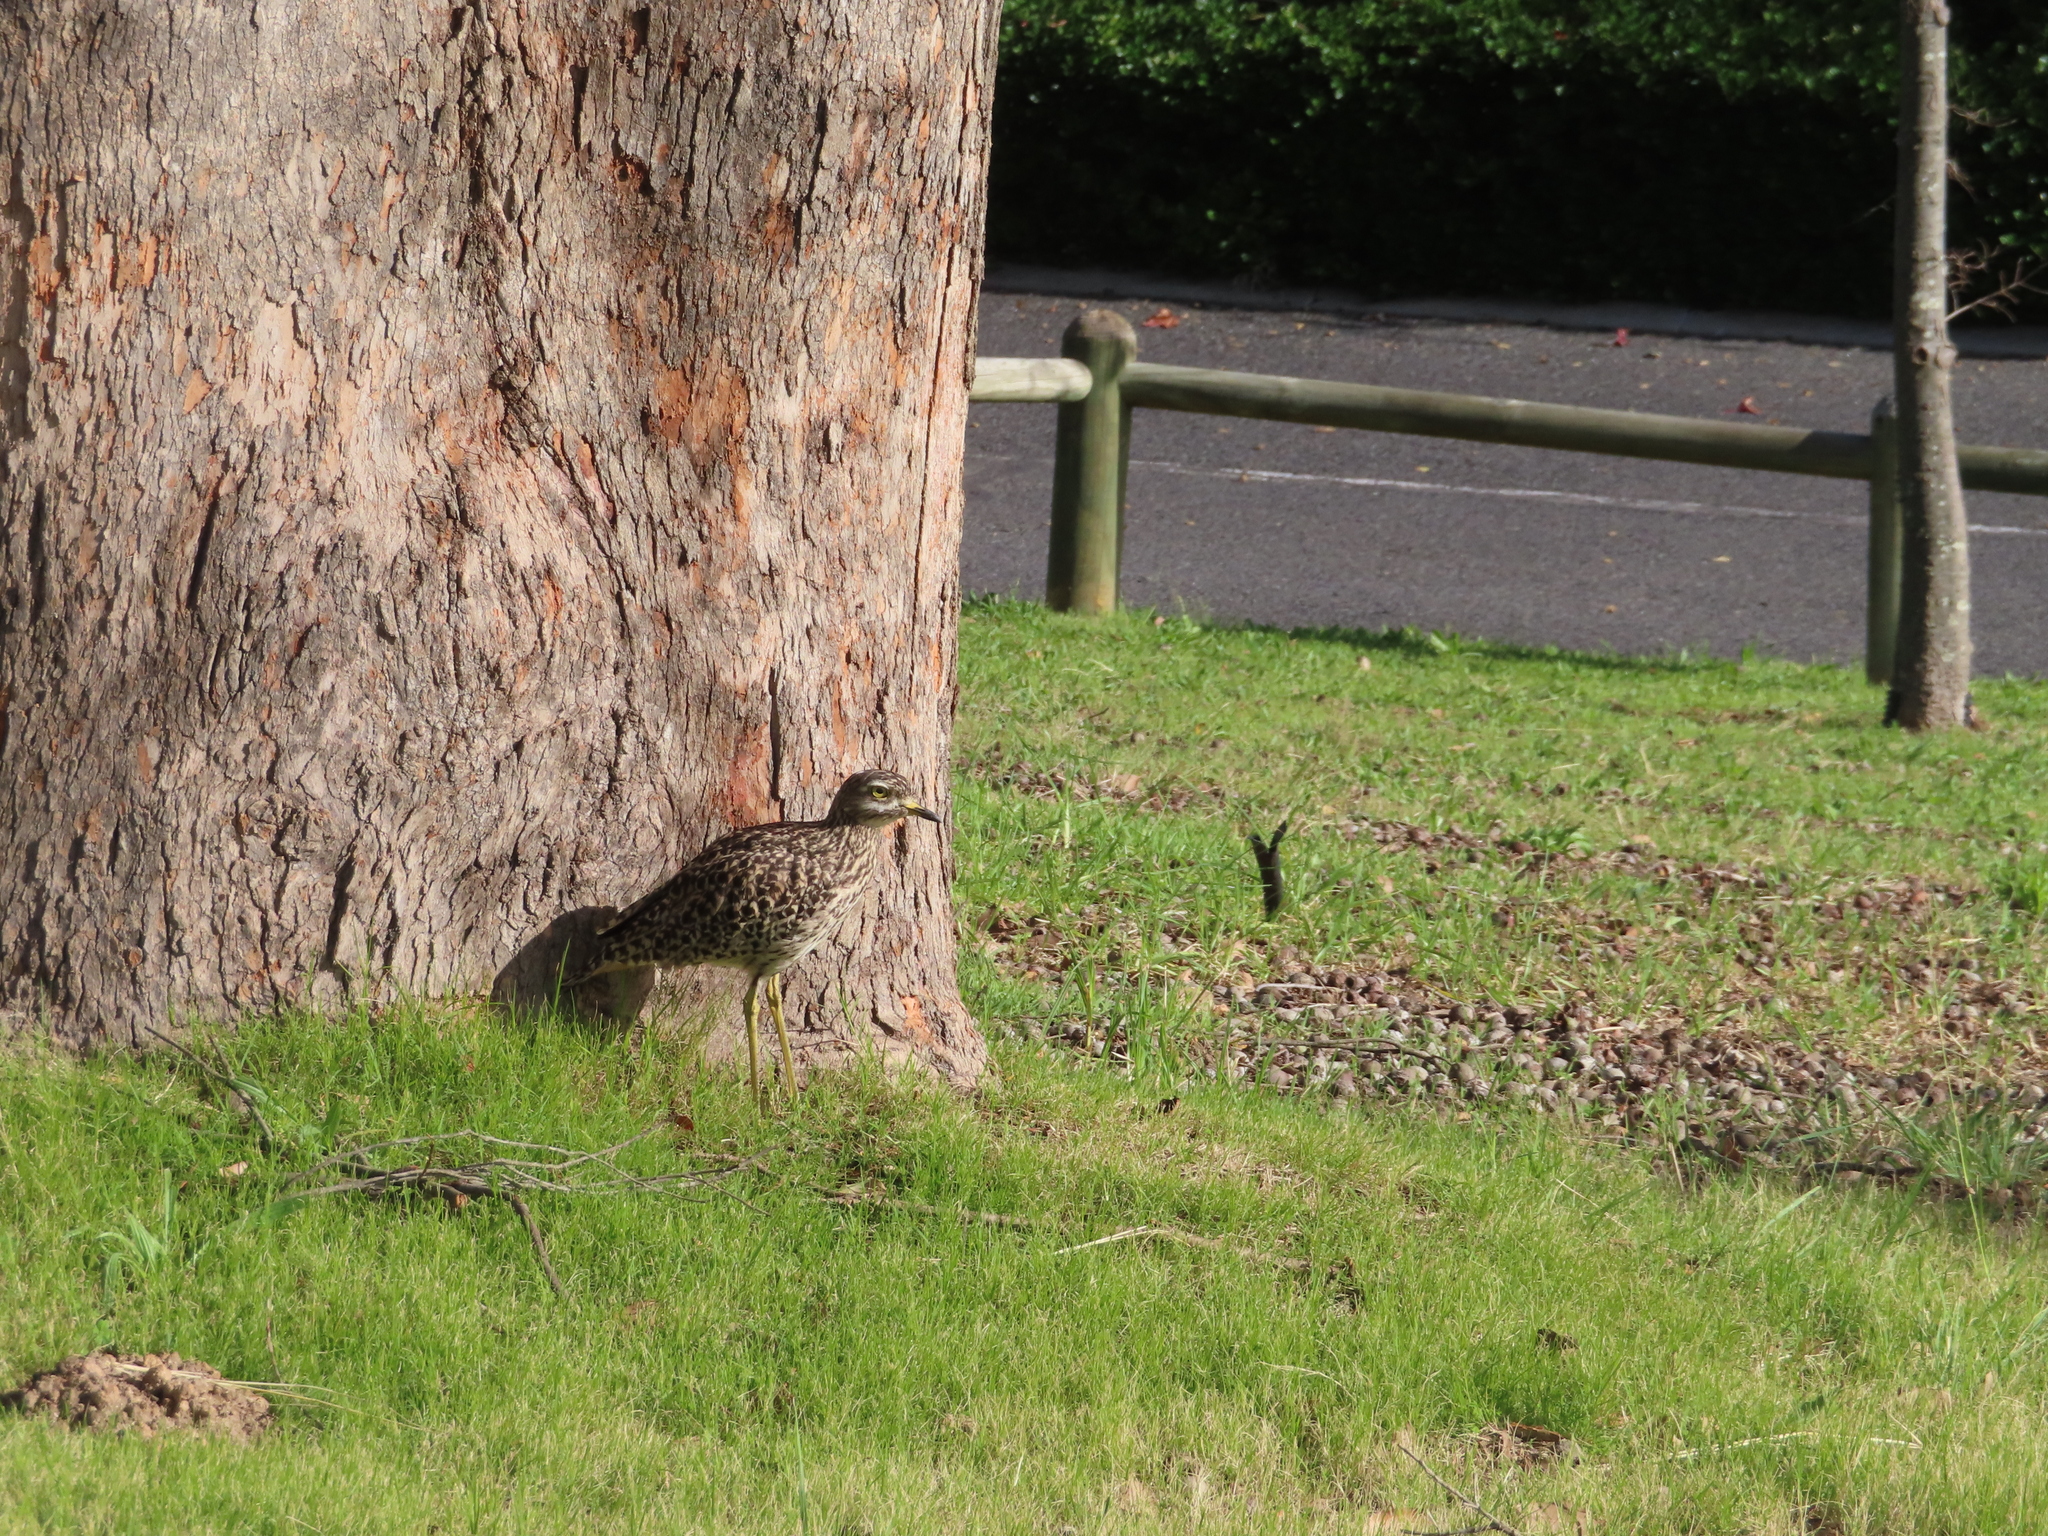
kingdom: Animalia
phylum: Chordata
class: Aves
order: Charadriiformes
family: Burhinidae
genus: Burhinus
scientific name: Burhinus capensis
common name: Spotted thick-knee
